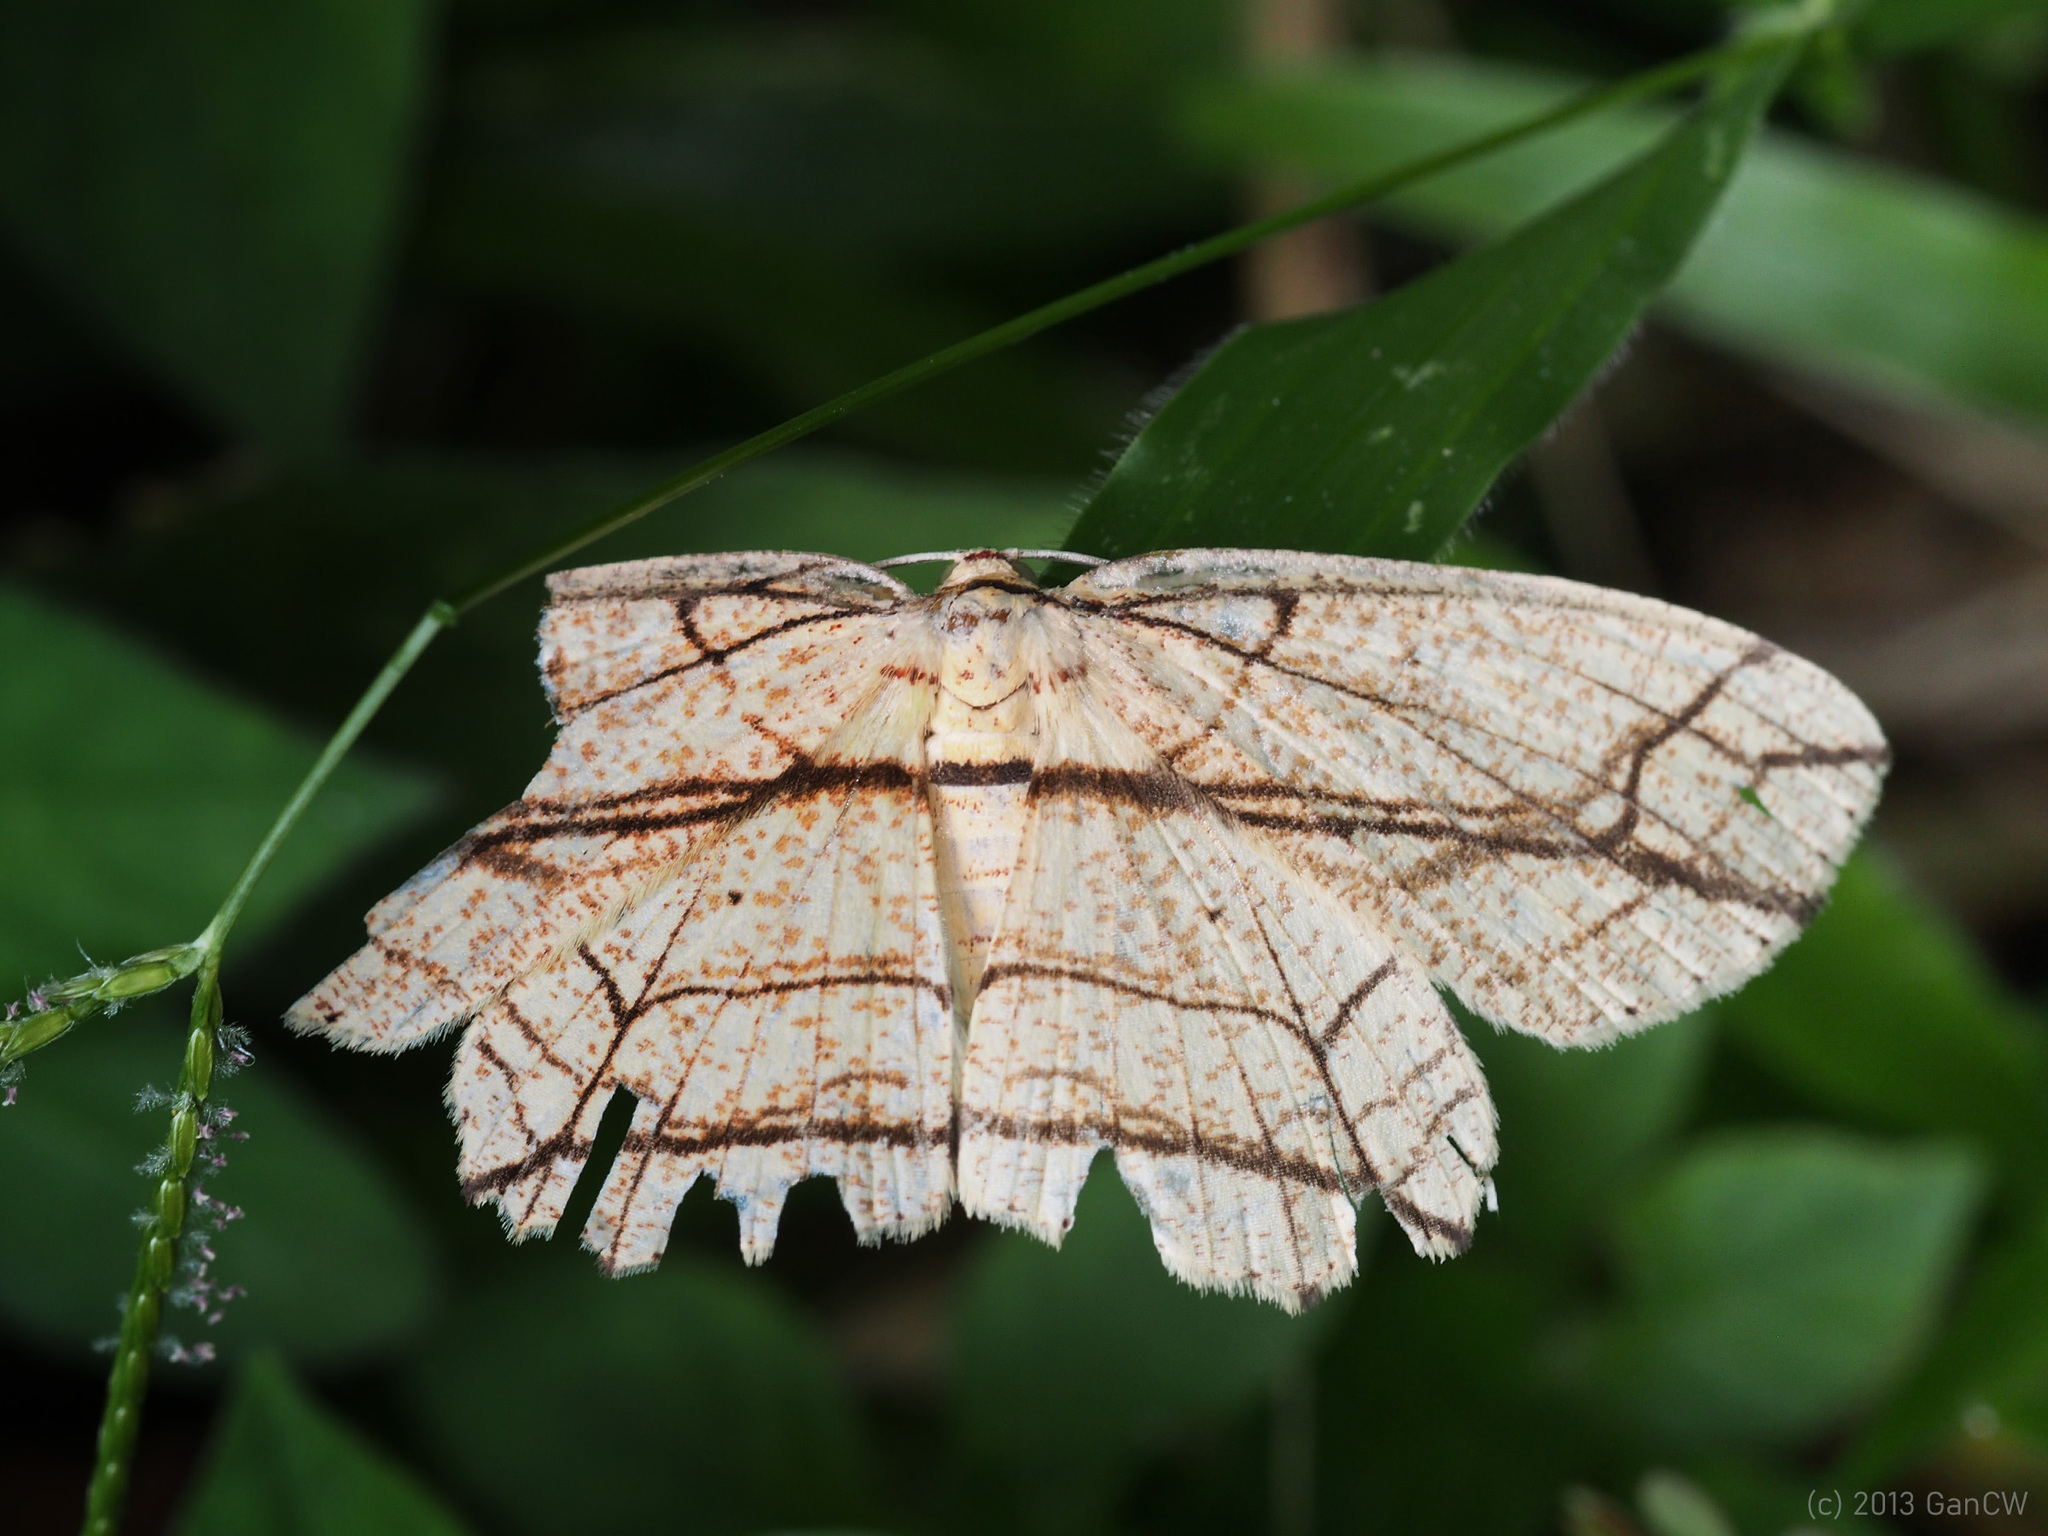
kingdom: Animalia
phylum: Arthropoda
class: Insecta
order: Lepidoptera
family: Geometridae
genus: Parasynegia
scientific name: Parasynegia fortilineata
